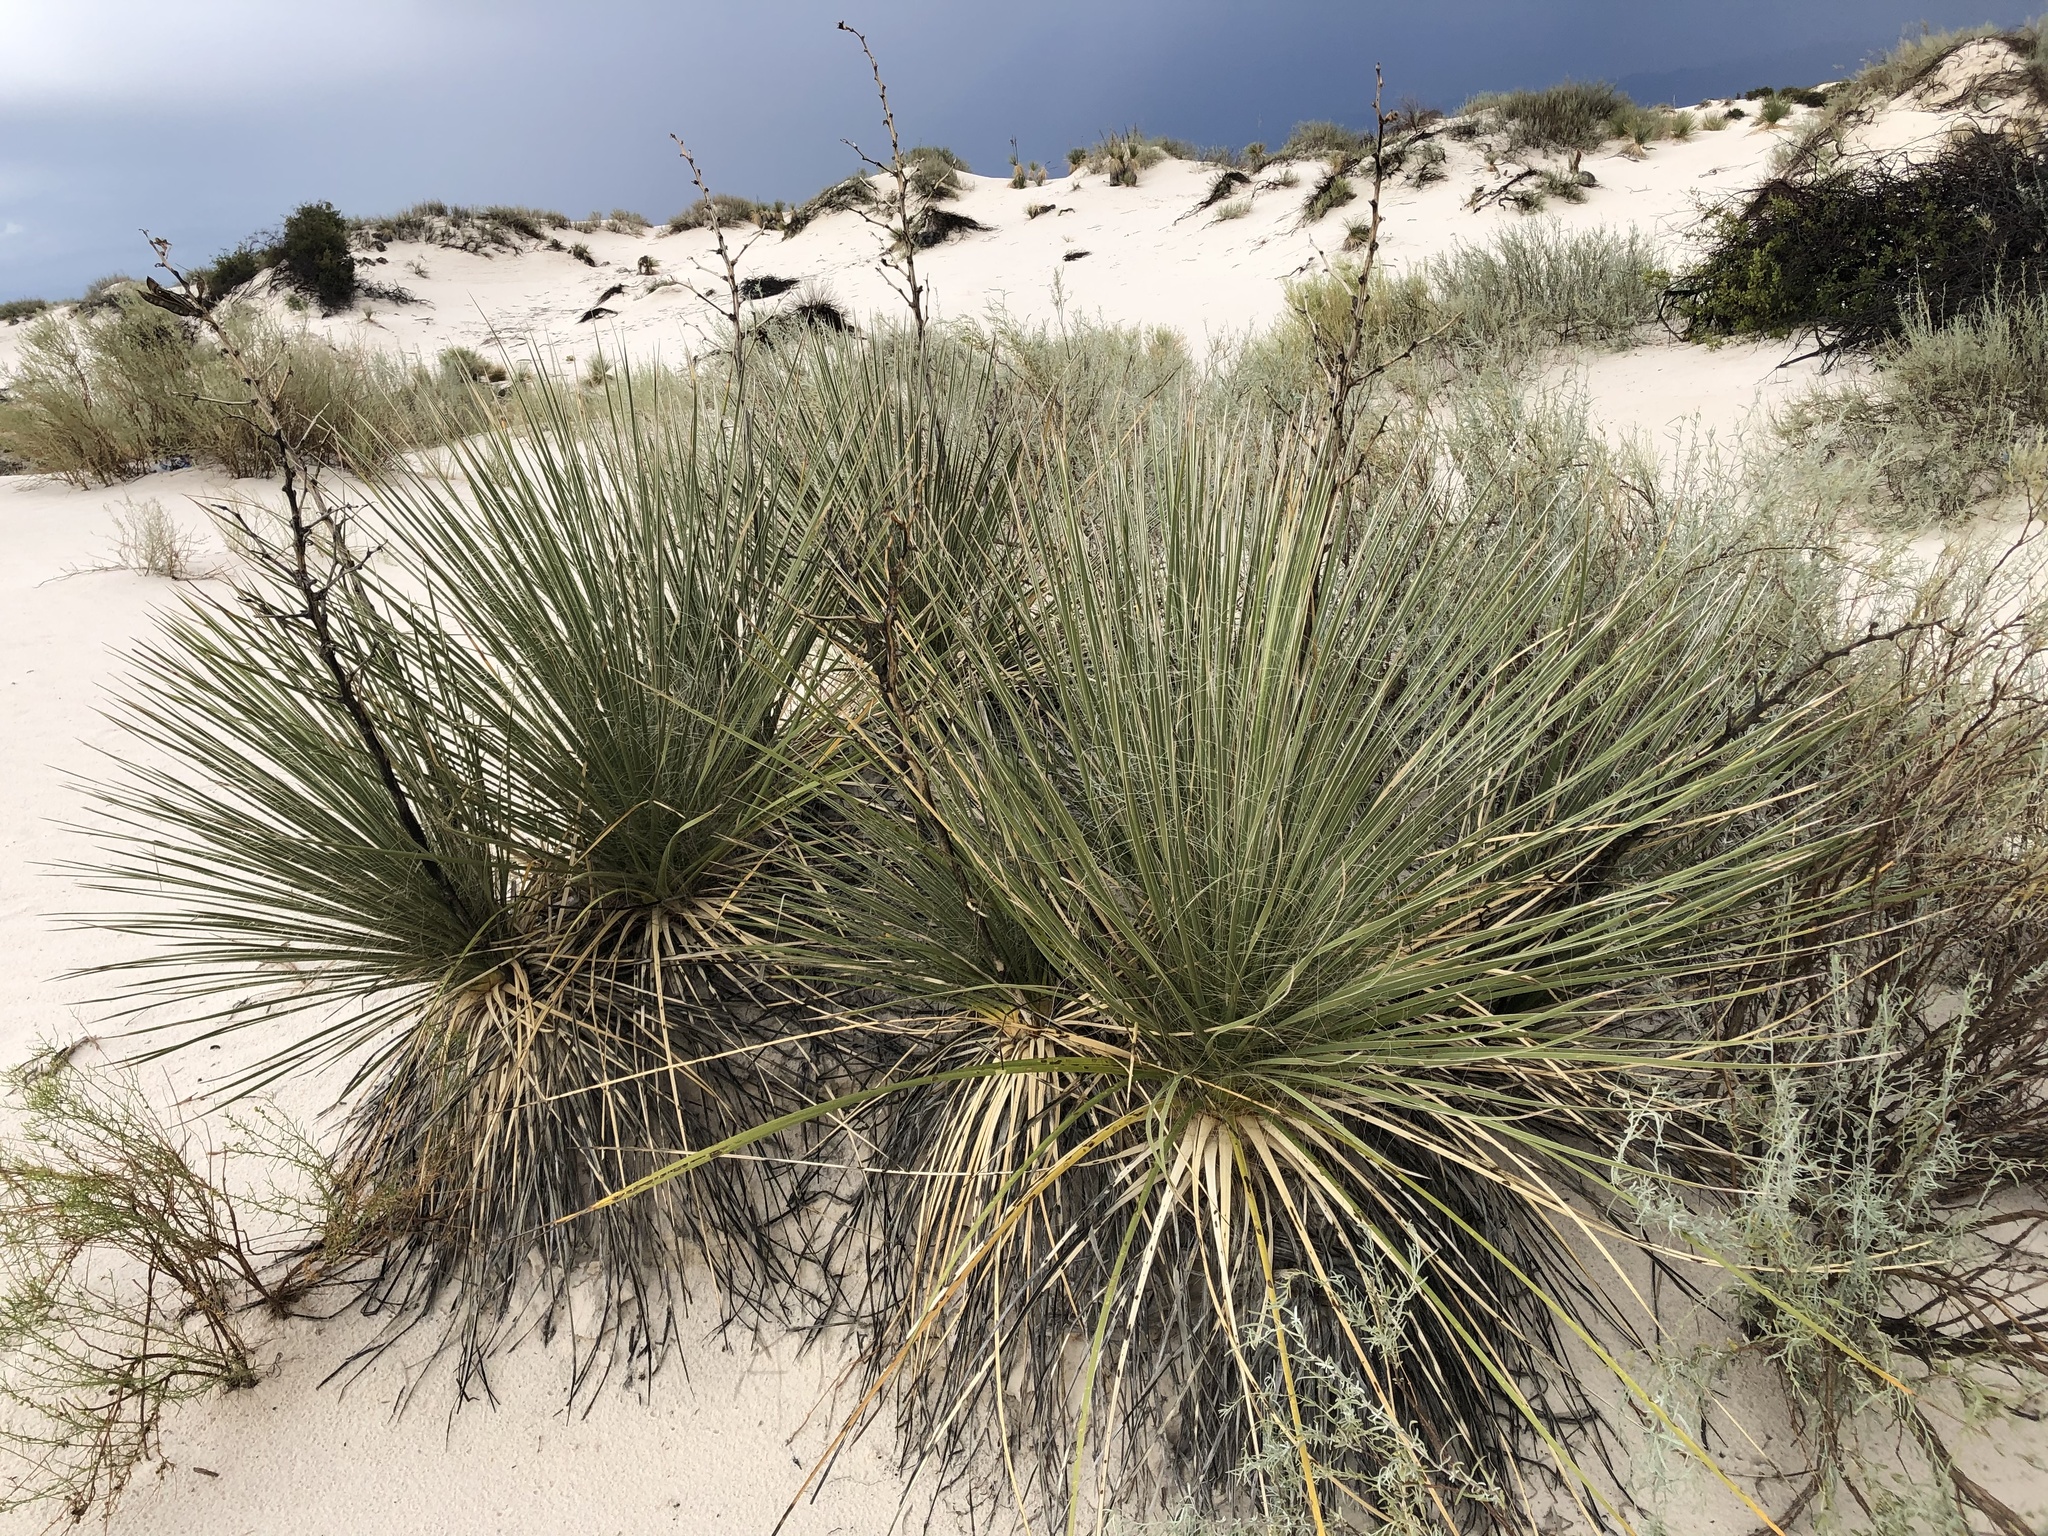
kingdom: Plantae
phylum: Tracheophyta
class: Liliopsida
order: Asparagales
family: Asparagaceae
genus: Yucca
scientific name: Yucca elata
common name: Palmella
